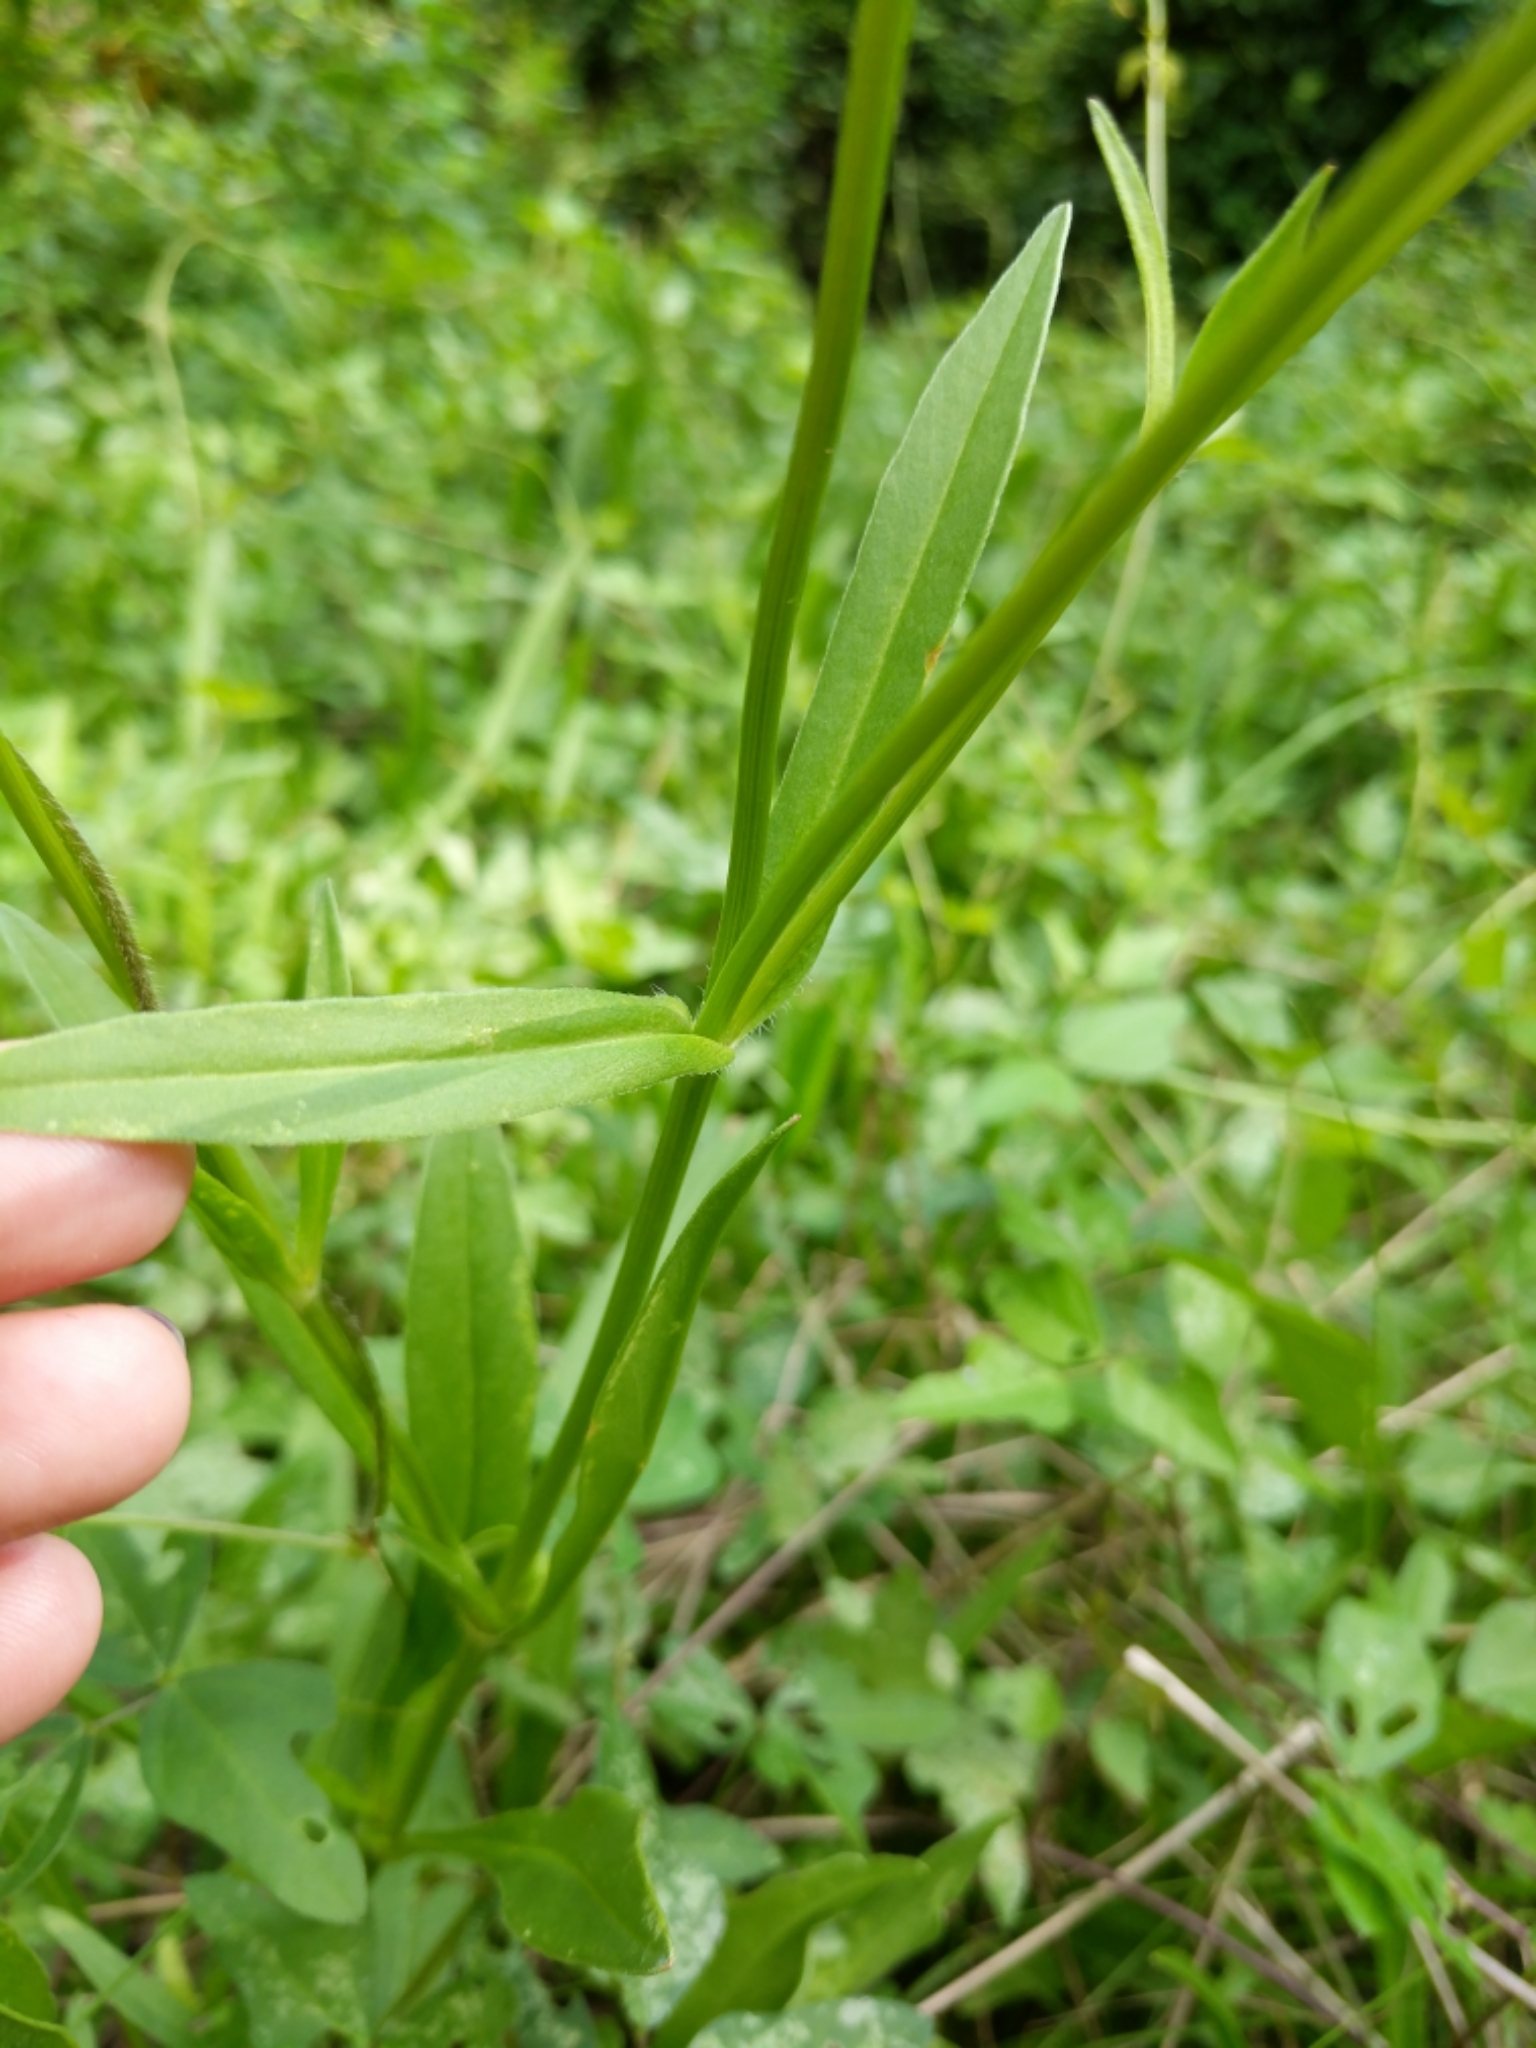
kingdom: Plantae
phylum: Tracheophyta
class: Magnoliopsida
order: Asterales
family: Asteraceae
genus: Coreopsis
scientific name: Coreopsis intermedia
